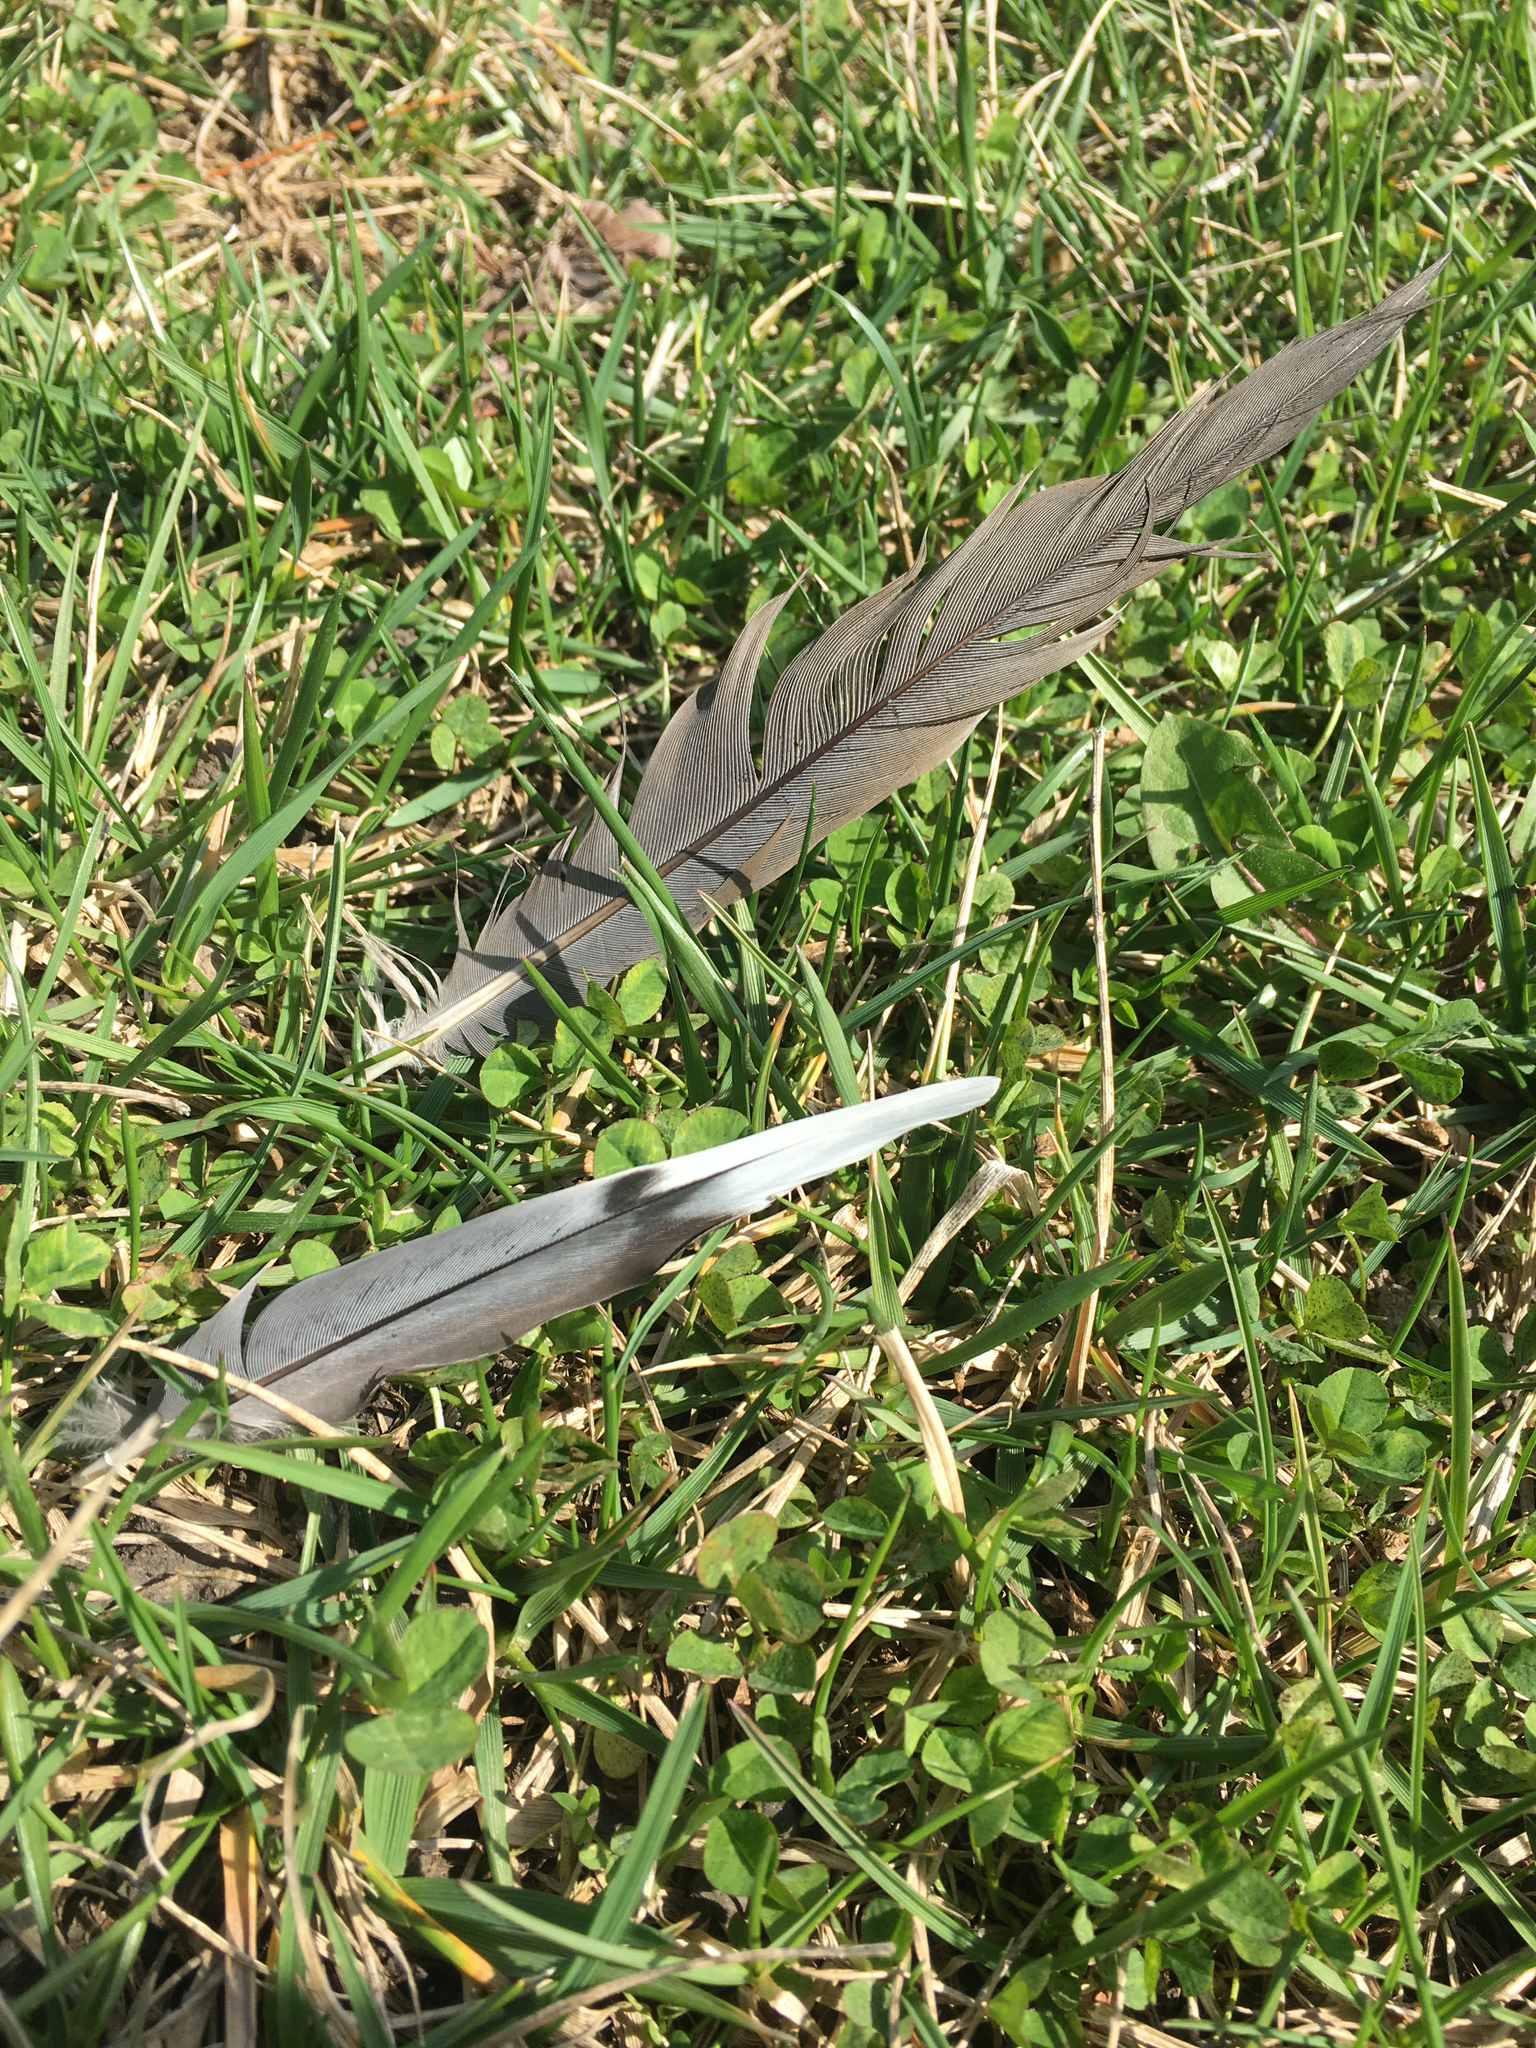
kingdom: Animalia
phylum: Chordata
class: Aves
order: Columbiformes
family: Columbidae
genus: Zenaida
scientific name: Zenaida macroura
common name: Mourning dove
